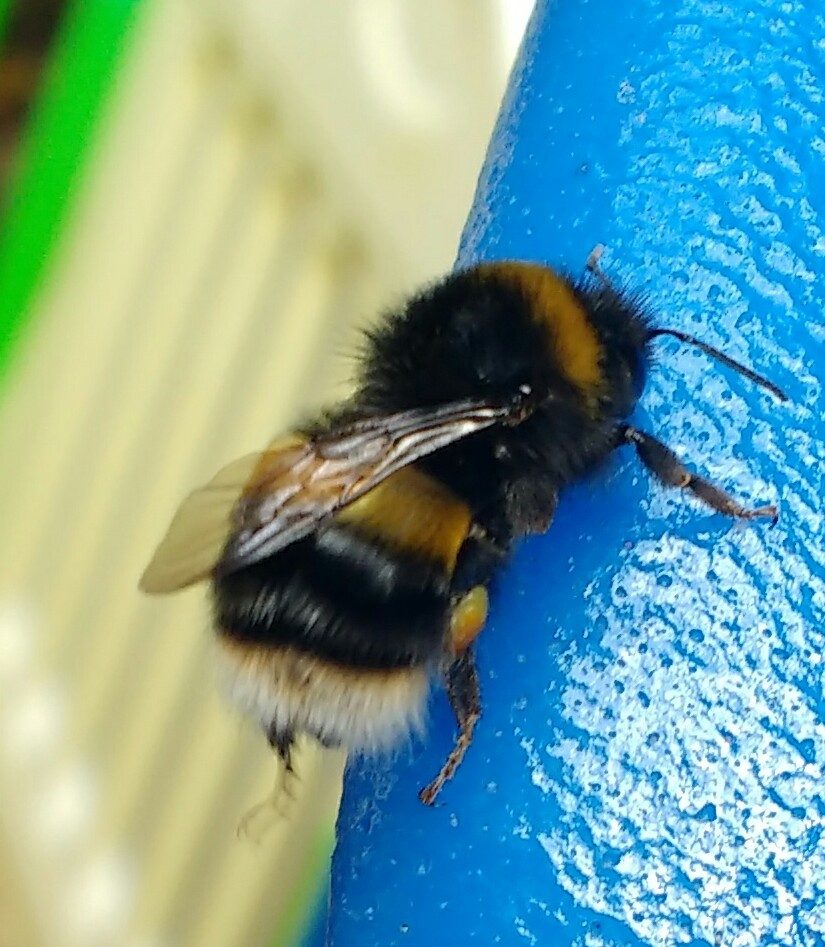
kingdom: Animalia
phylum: Arthropoda
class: Insecta
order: Hymenoptera
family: Apidae
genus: Bombus
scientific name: Bombus terrestris
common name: Buff-tailed bumblebee
